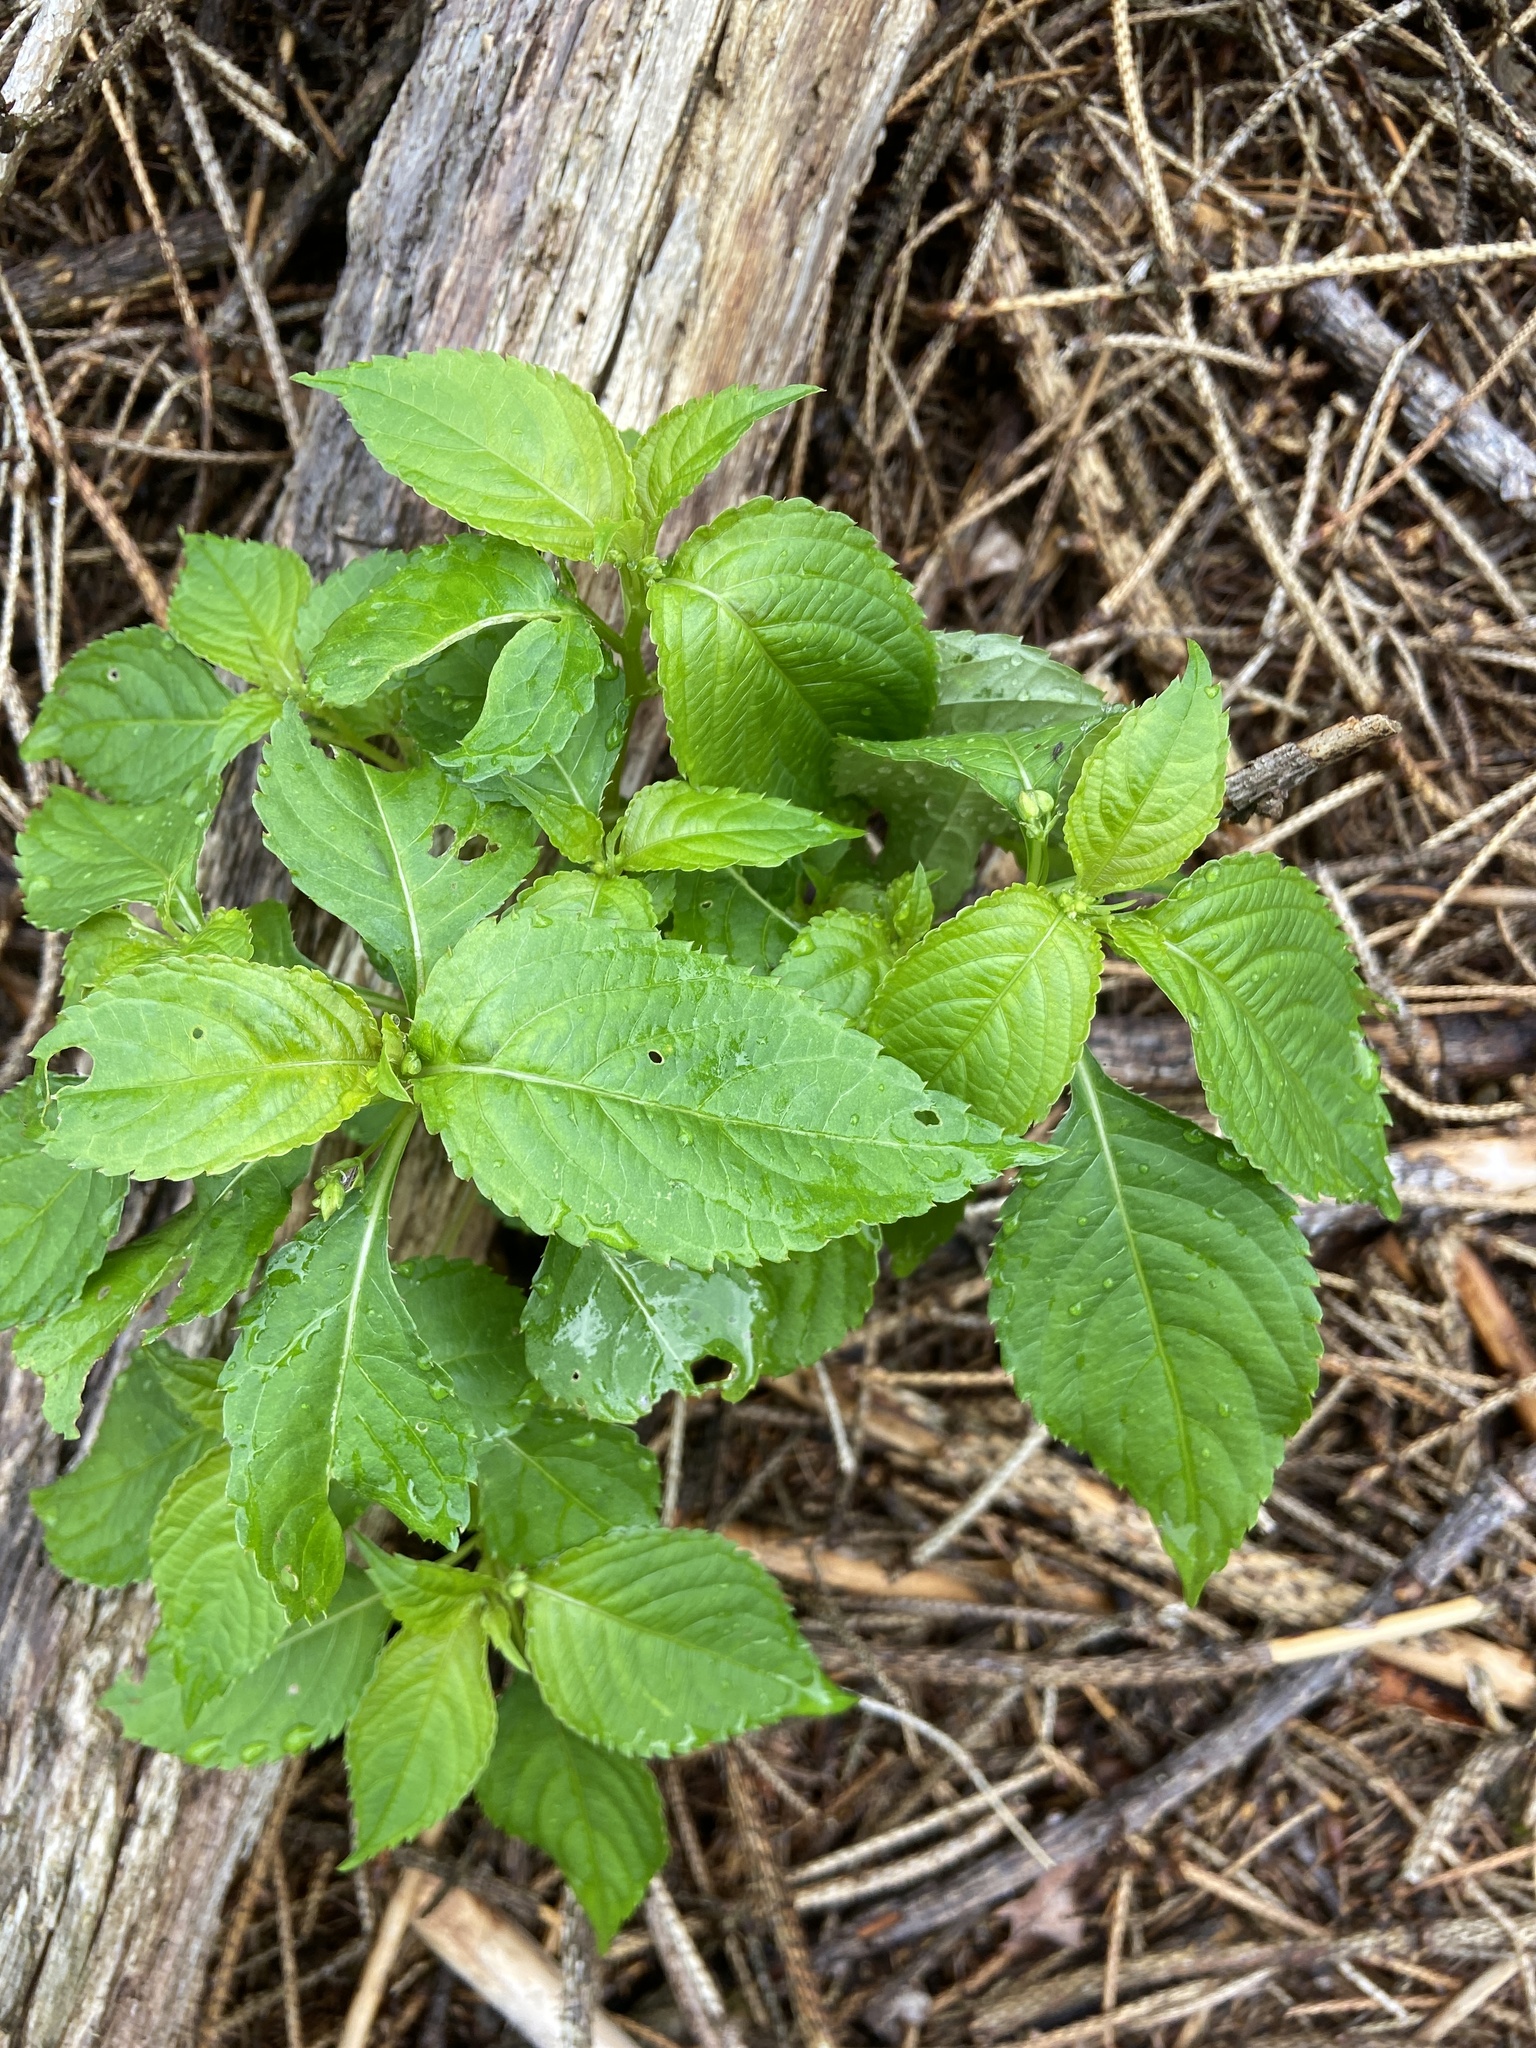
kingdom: Plantae
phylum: Tracheophyta
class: Magnoliopsida
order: Ericales
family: Balsaminaceae
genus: Impatiens
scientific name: Impatiens parviflora
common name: Small balsam
